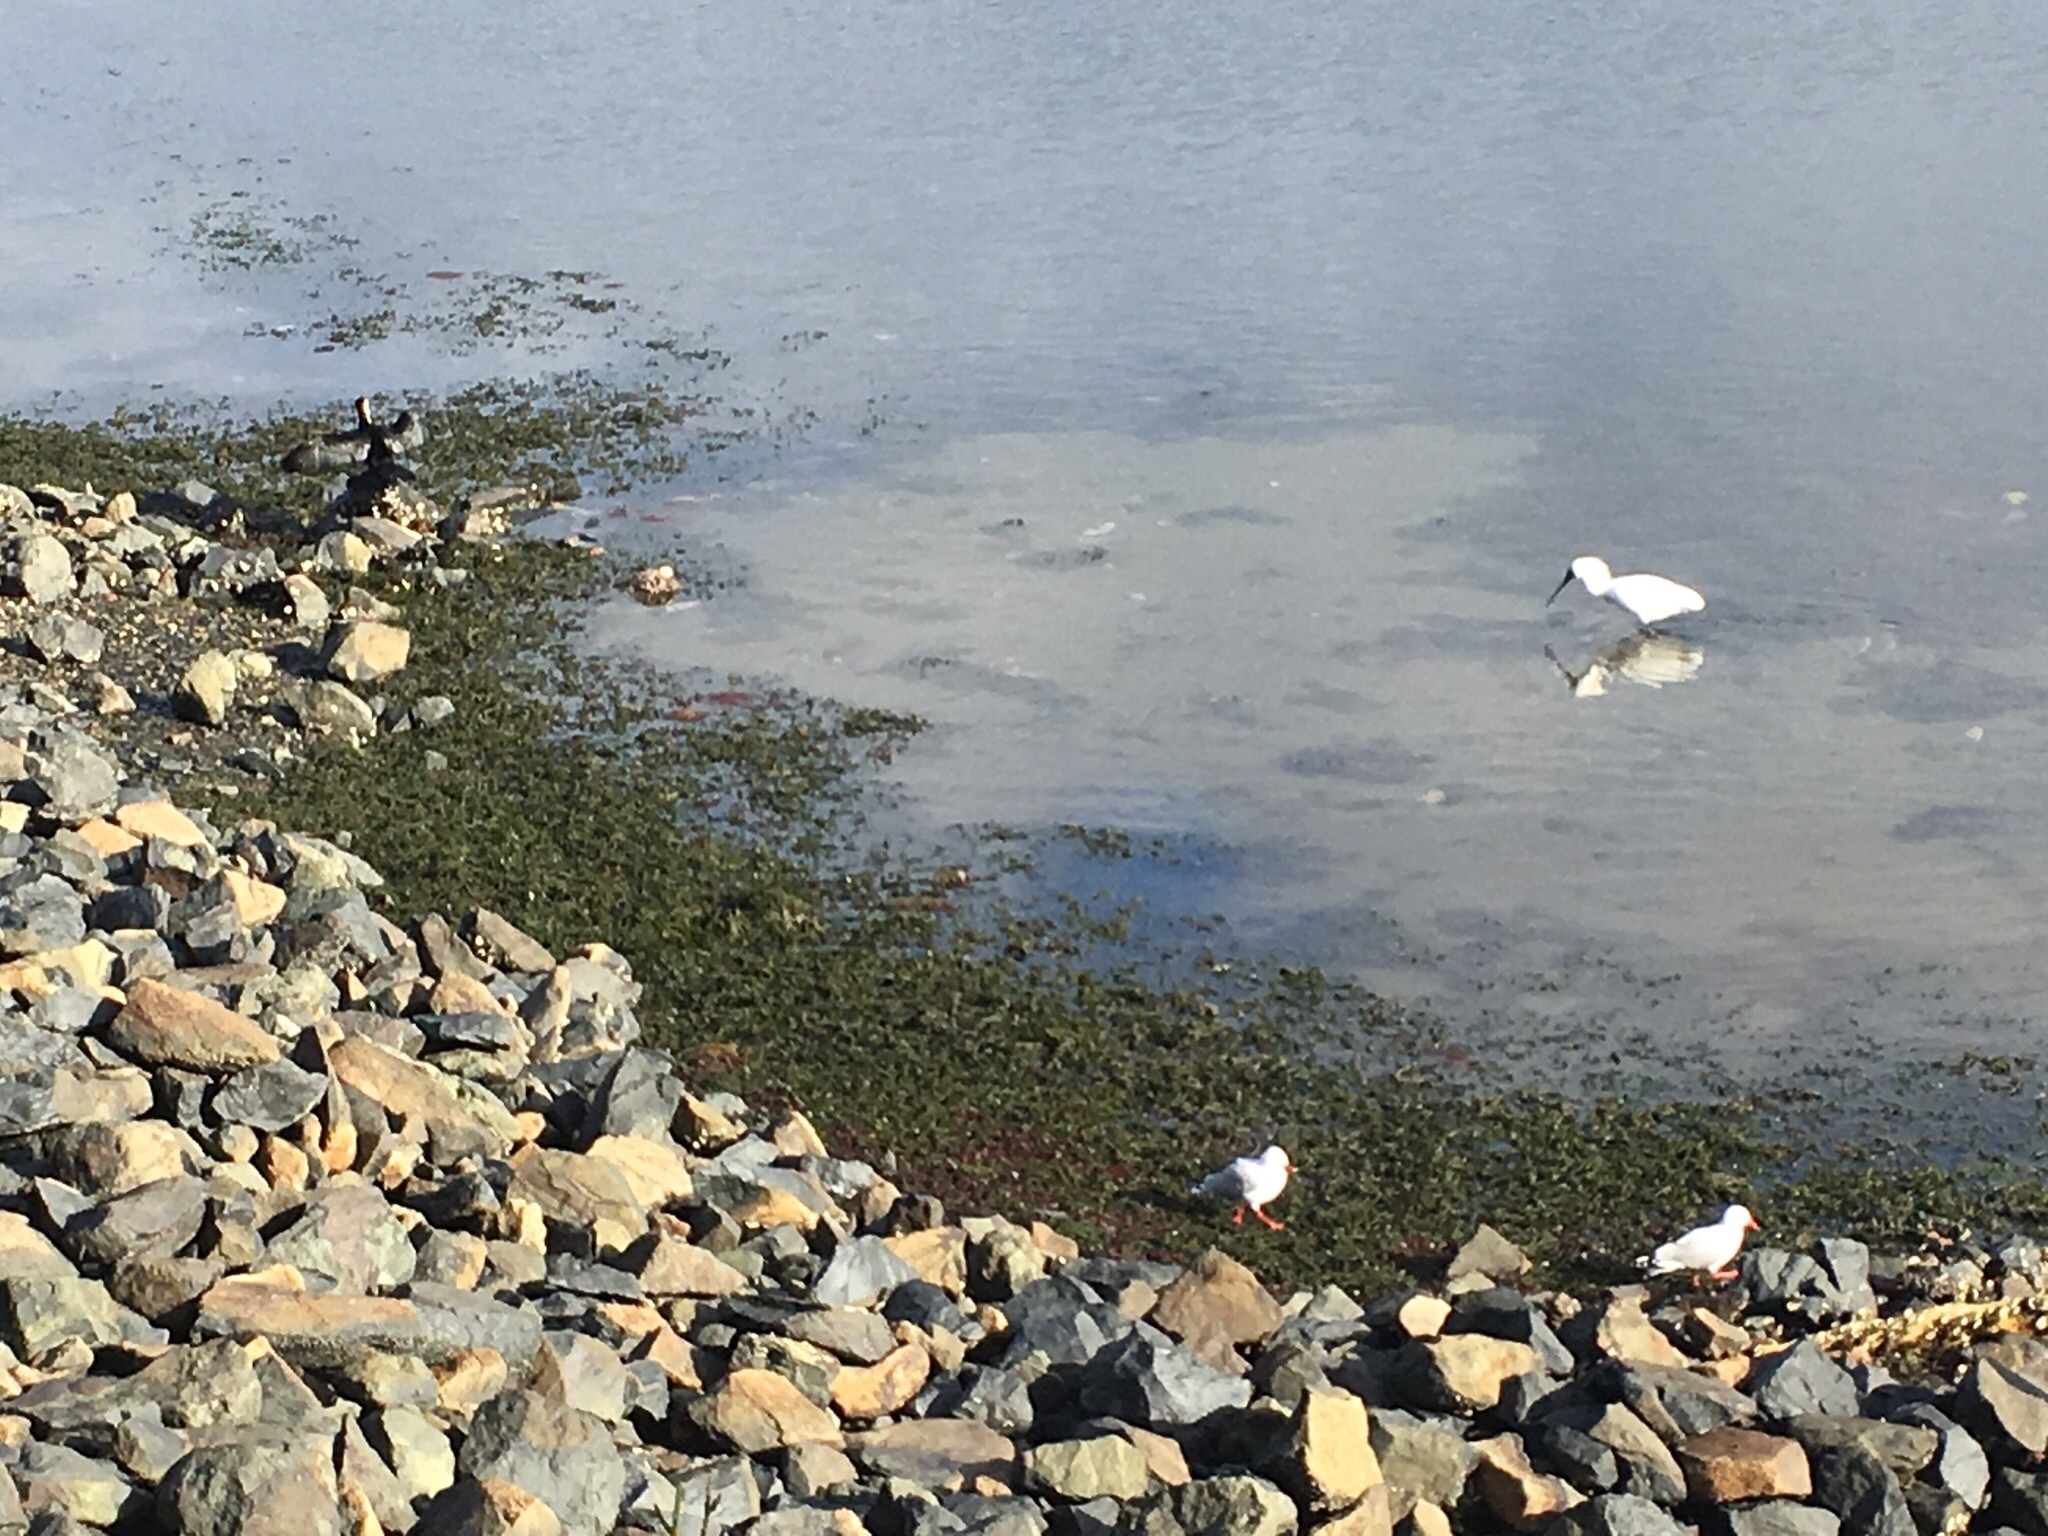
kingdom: Animalia
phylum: Chordata
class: Aves
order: Suliformes
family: Phalacrocoracidae
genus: Microcarbo
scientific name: Microcarbo melanoleucos
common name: Little pied cormorant
